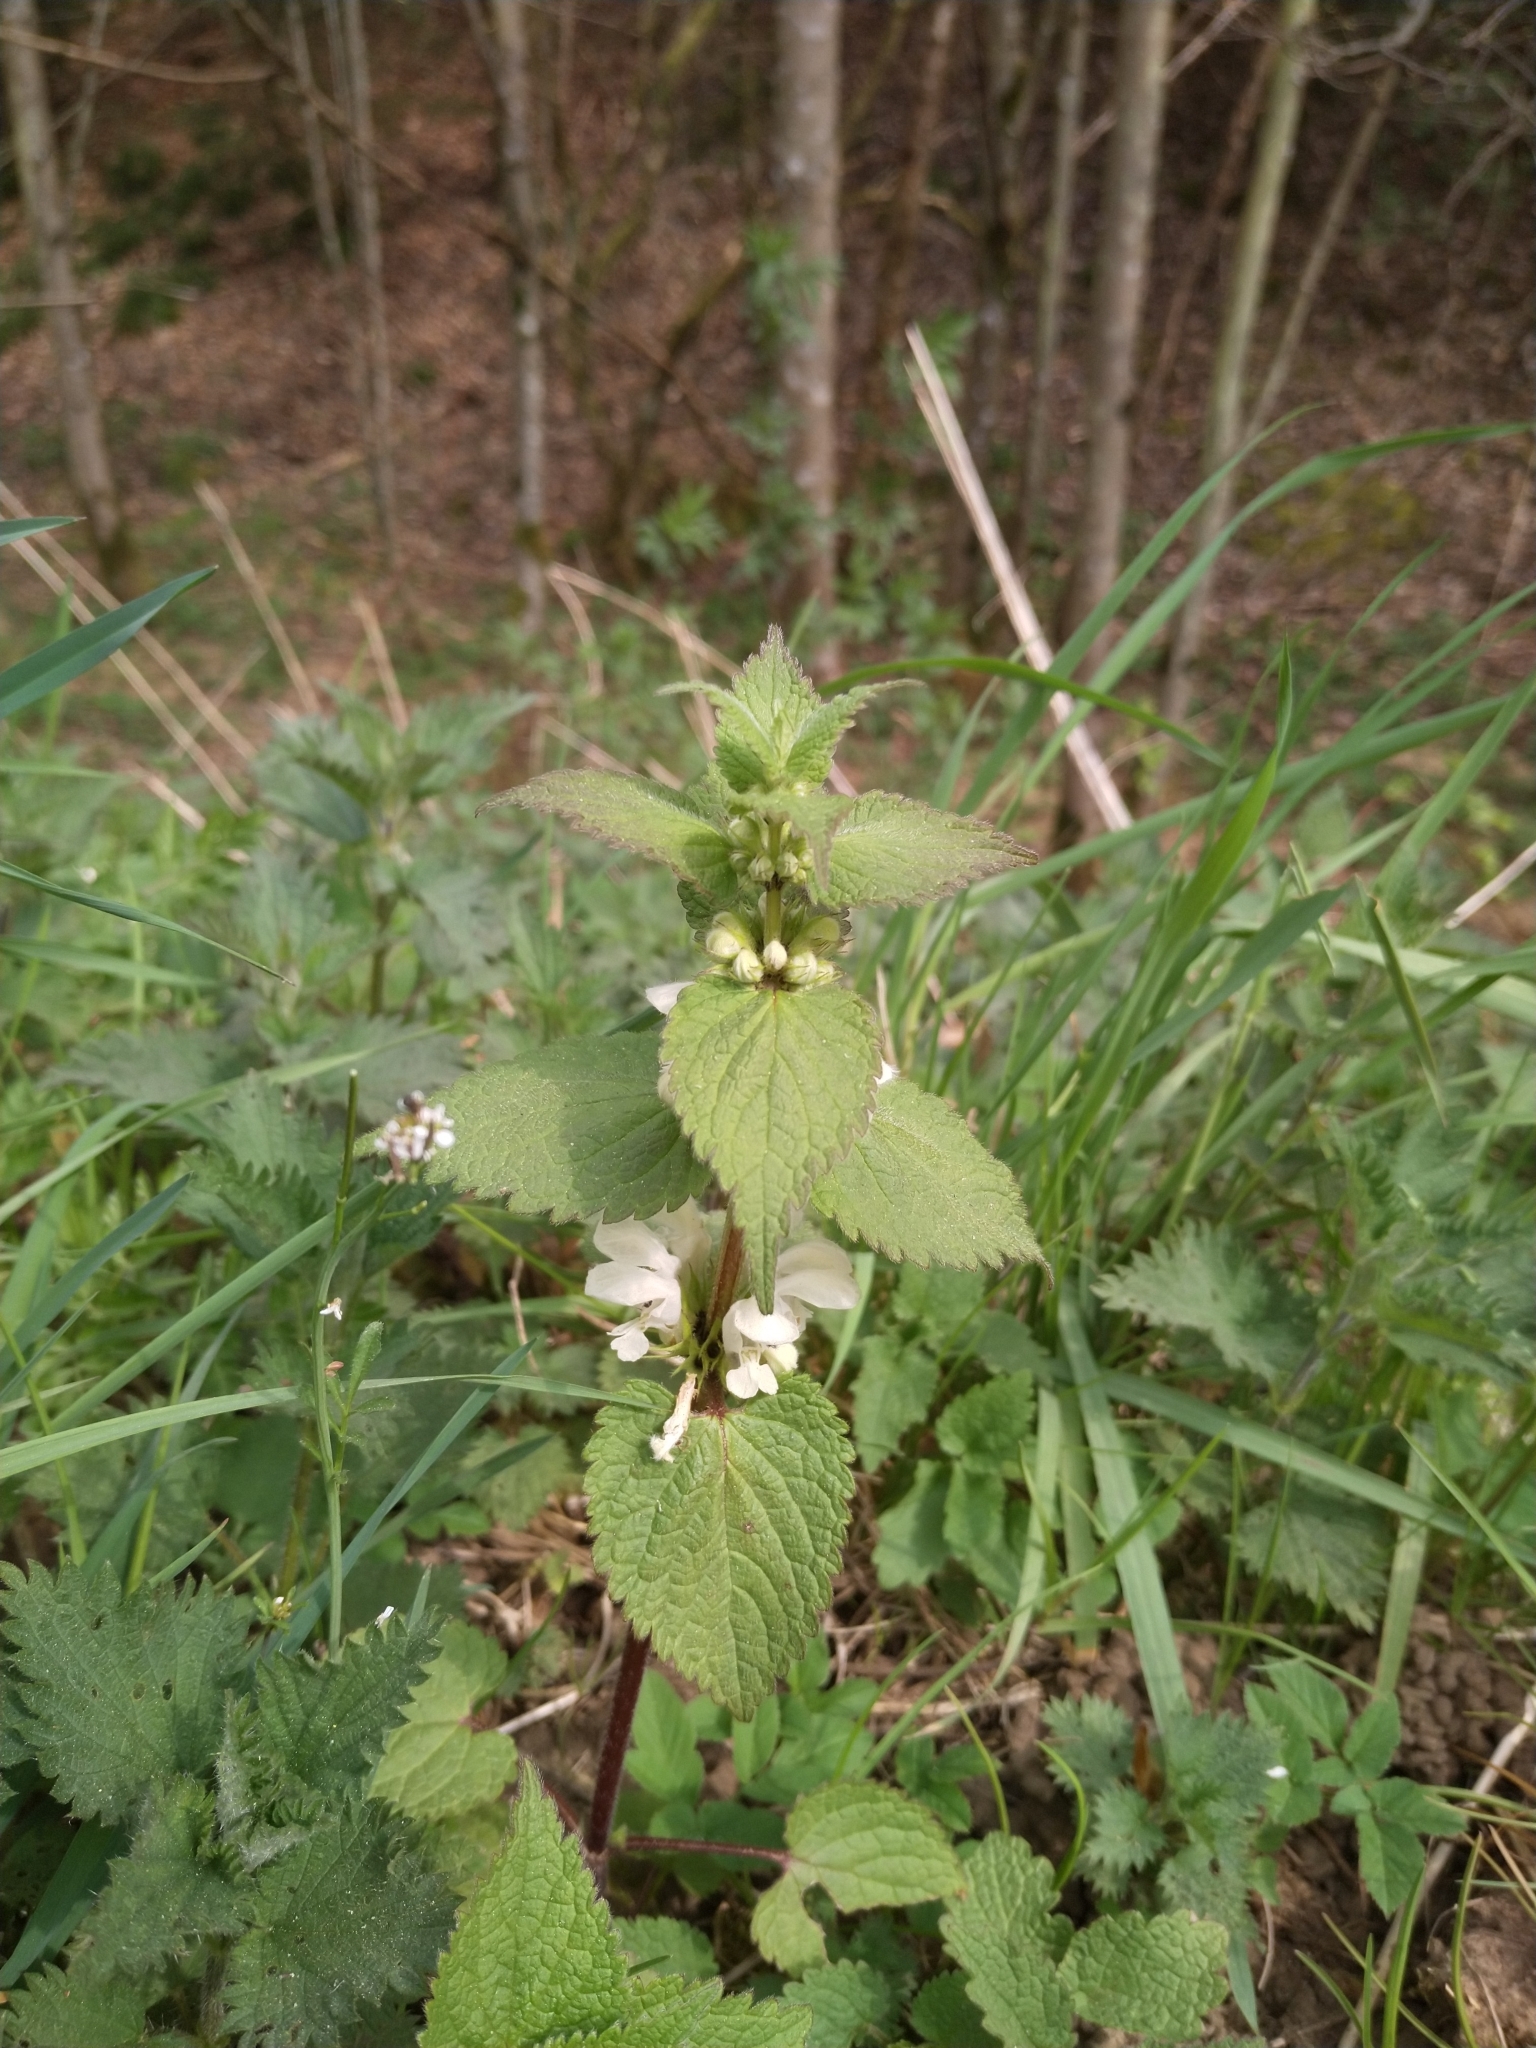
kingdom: Plantae
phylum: Tracheophyta
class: Magnoliopsida
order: Lamiales
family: Lamiaceae
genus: Lamium
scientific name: Lamium album
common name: White dead-nettle
